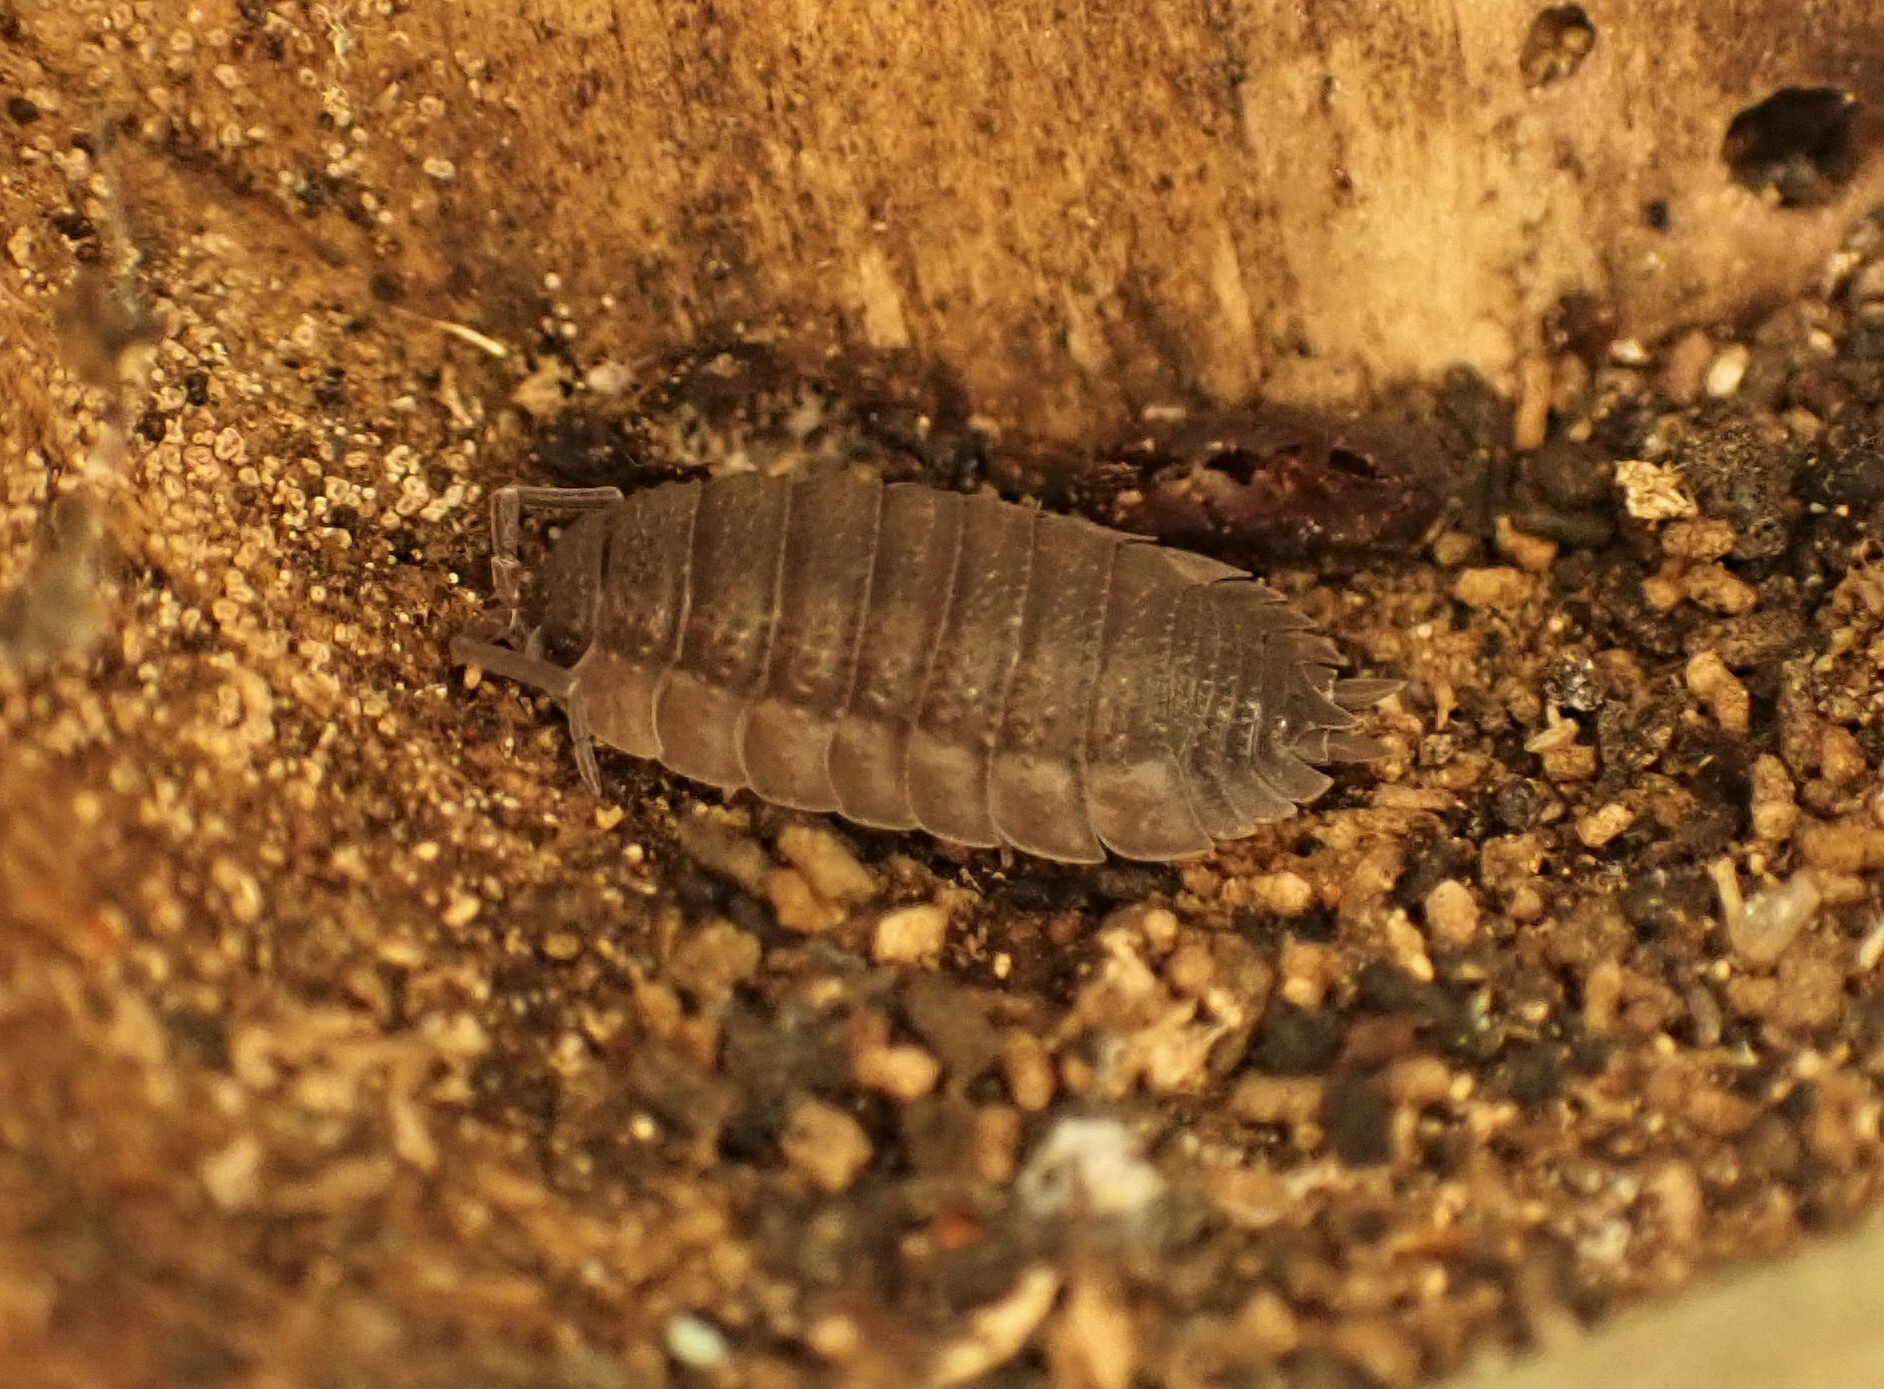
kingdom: Animalia
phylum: Arthropoda
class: Malacostraca
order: Isopoda
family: Porcellionidae
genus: Porcellio
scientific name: Porcellio scaber
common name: Common rough woodlouse
